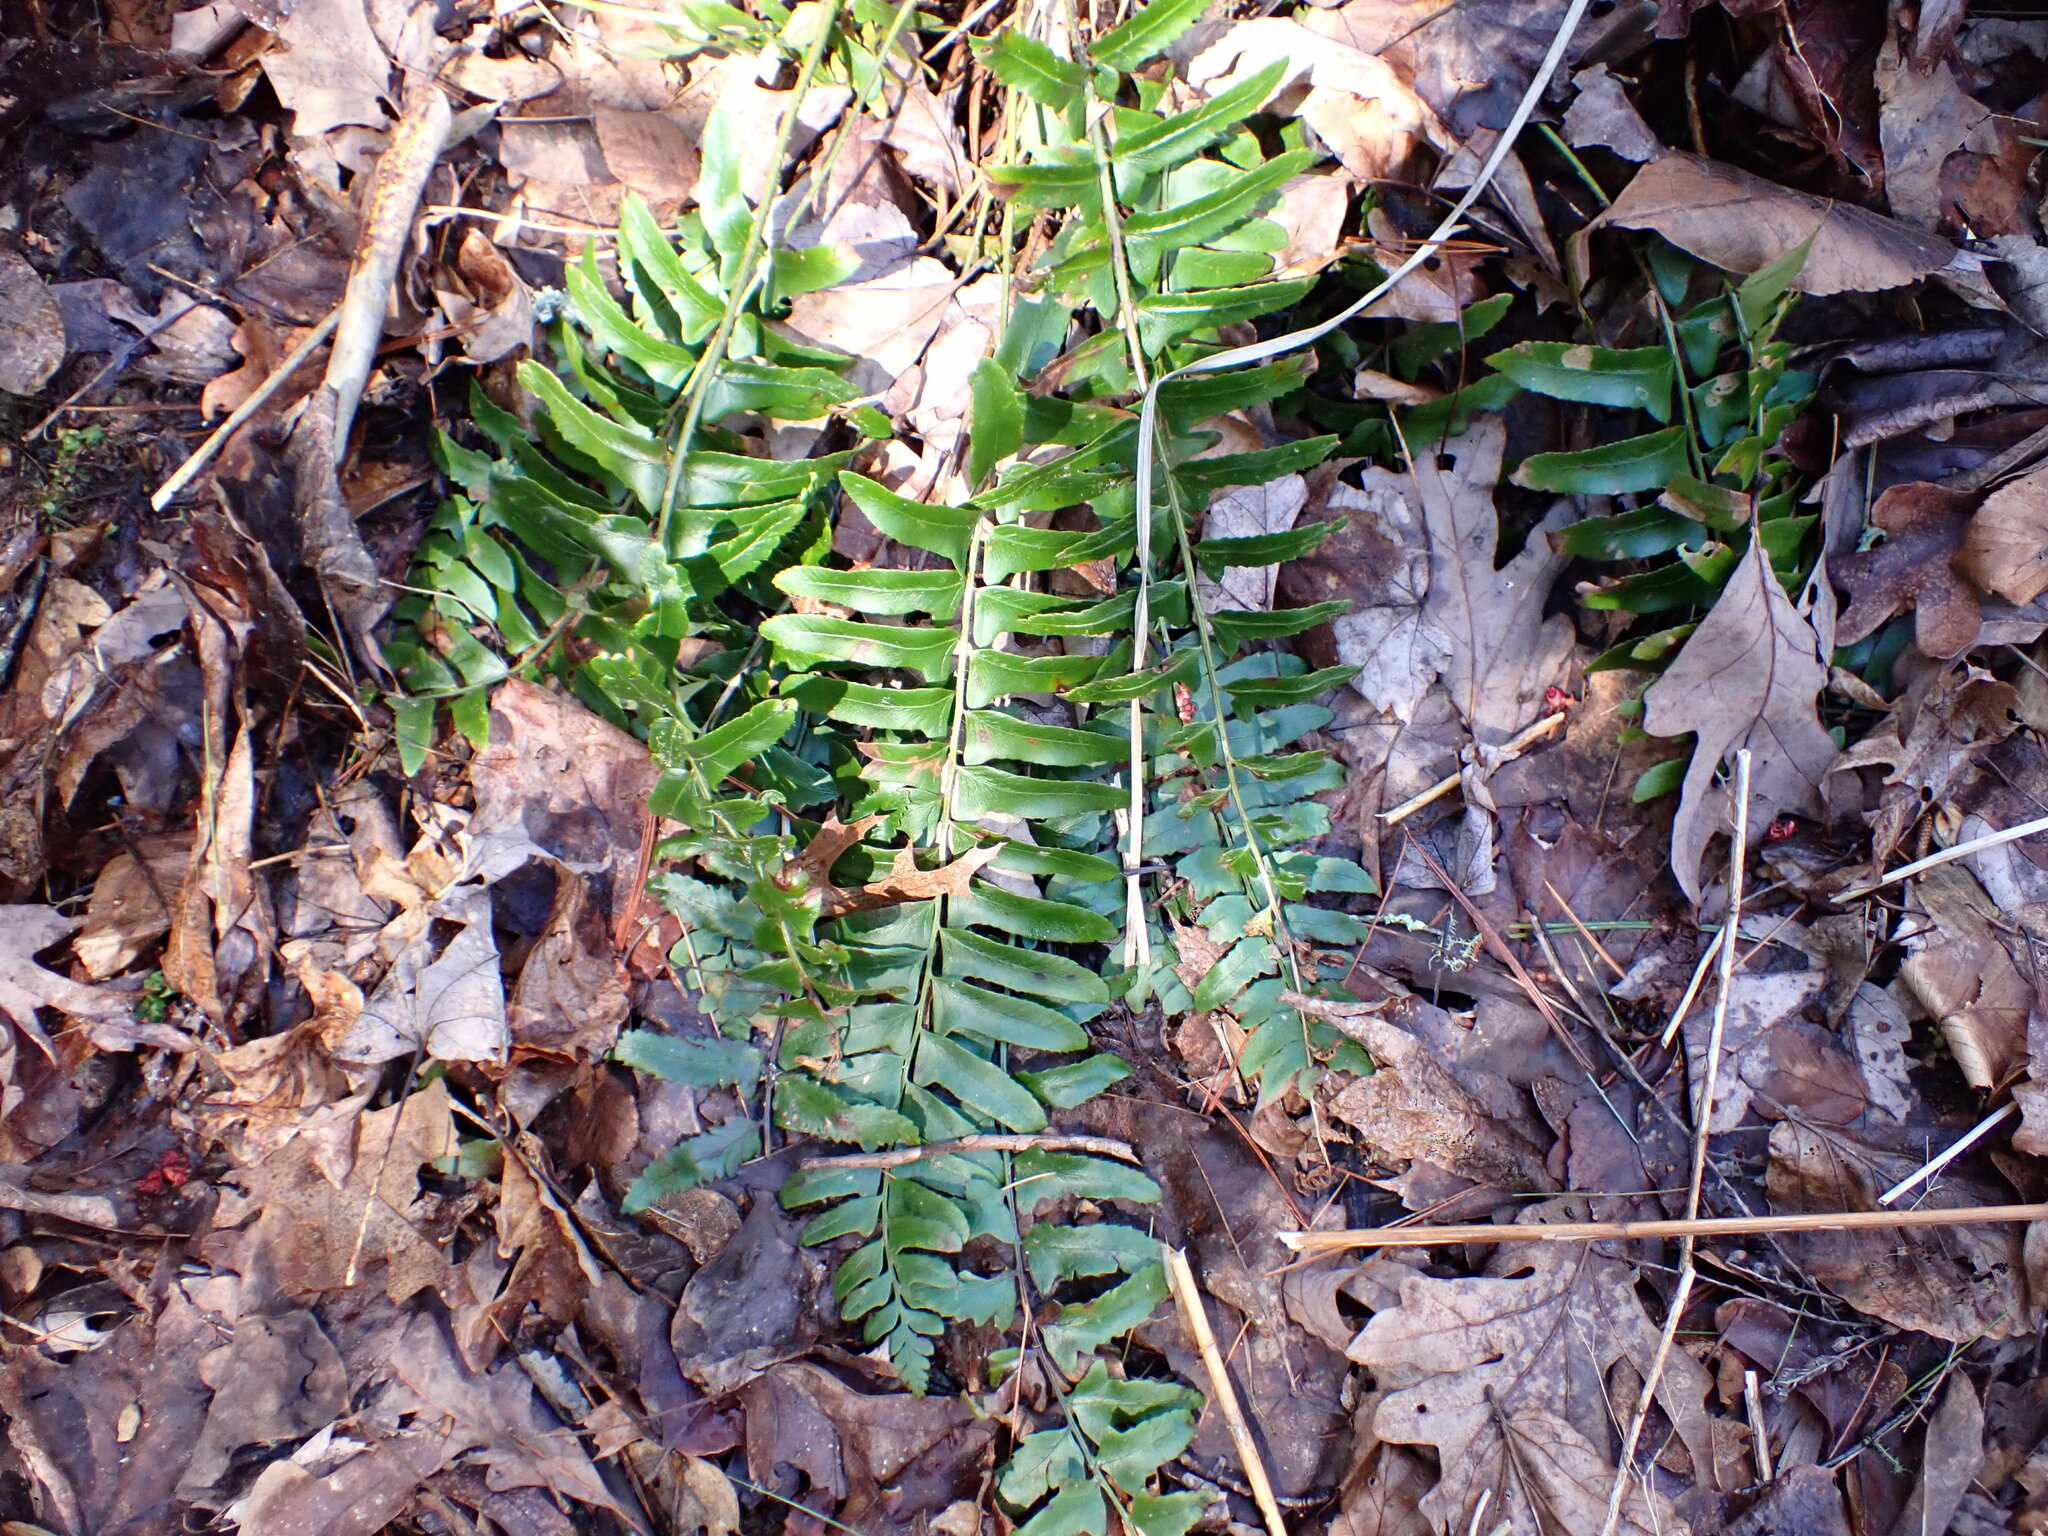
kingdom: Plantae
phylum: Tracheophyta
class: Polypodiopsida
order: Polypodiales
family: Dryopteridaceae
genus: Polystichum
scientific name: Polystichum acrostichoides
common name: Christmas fern
